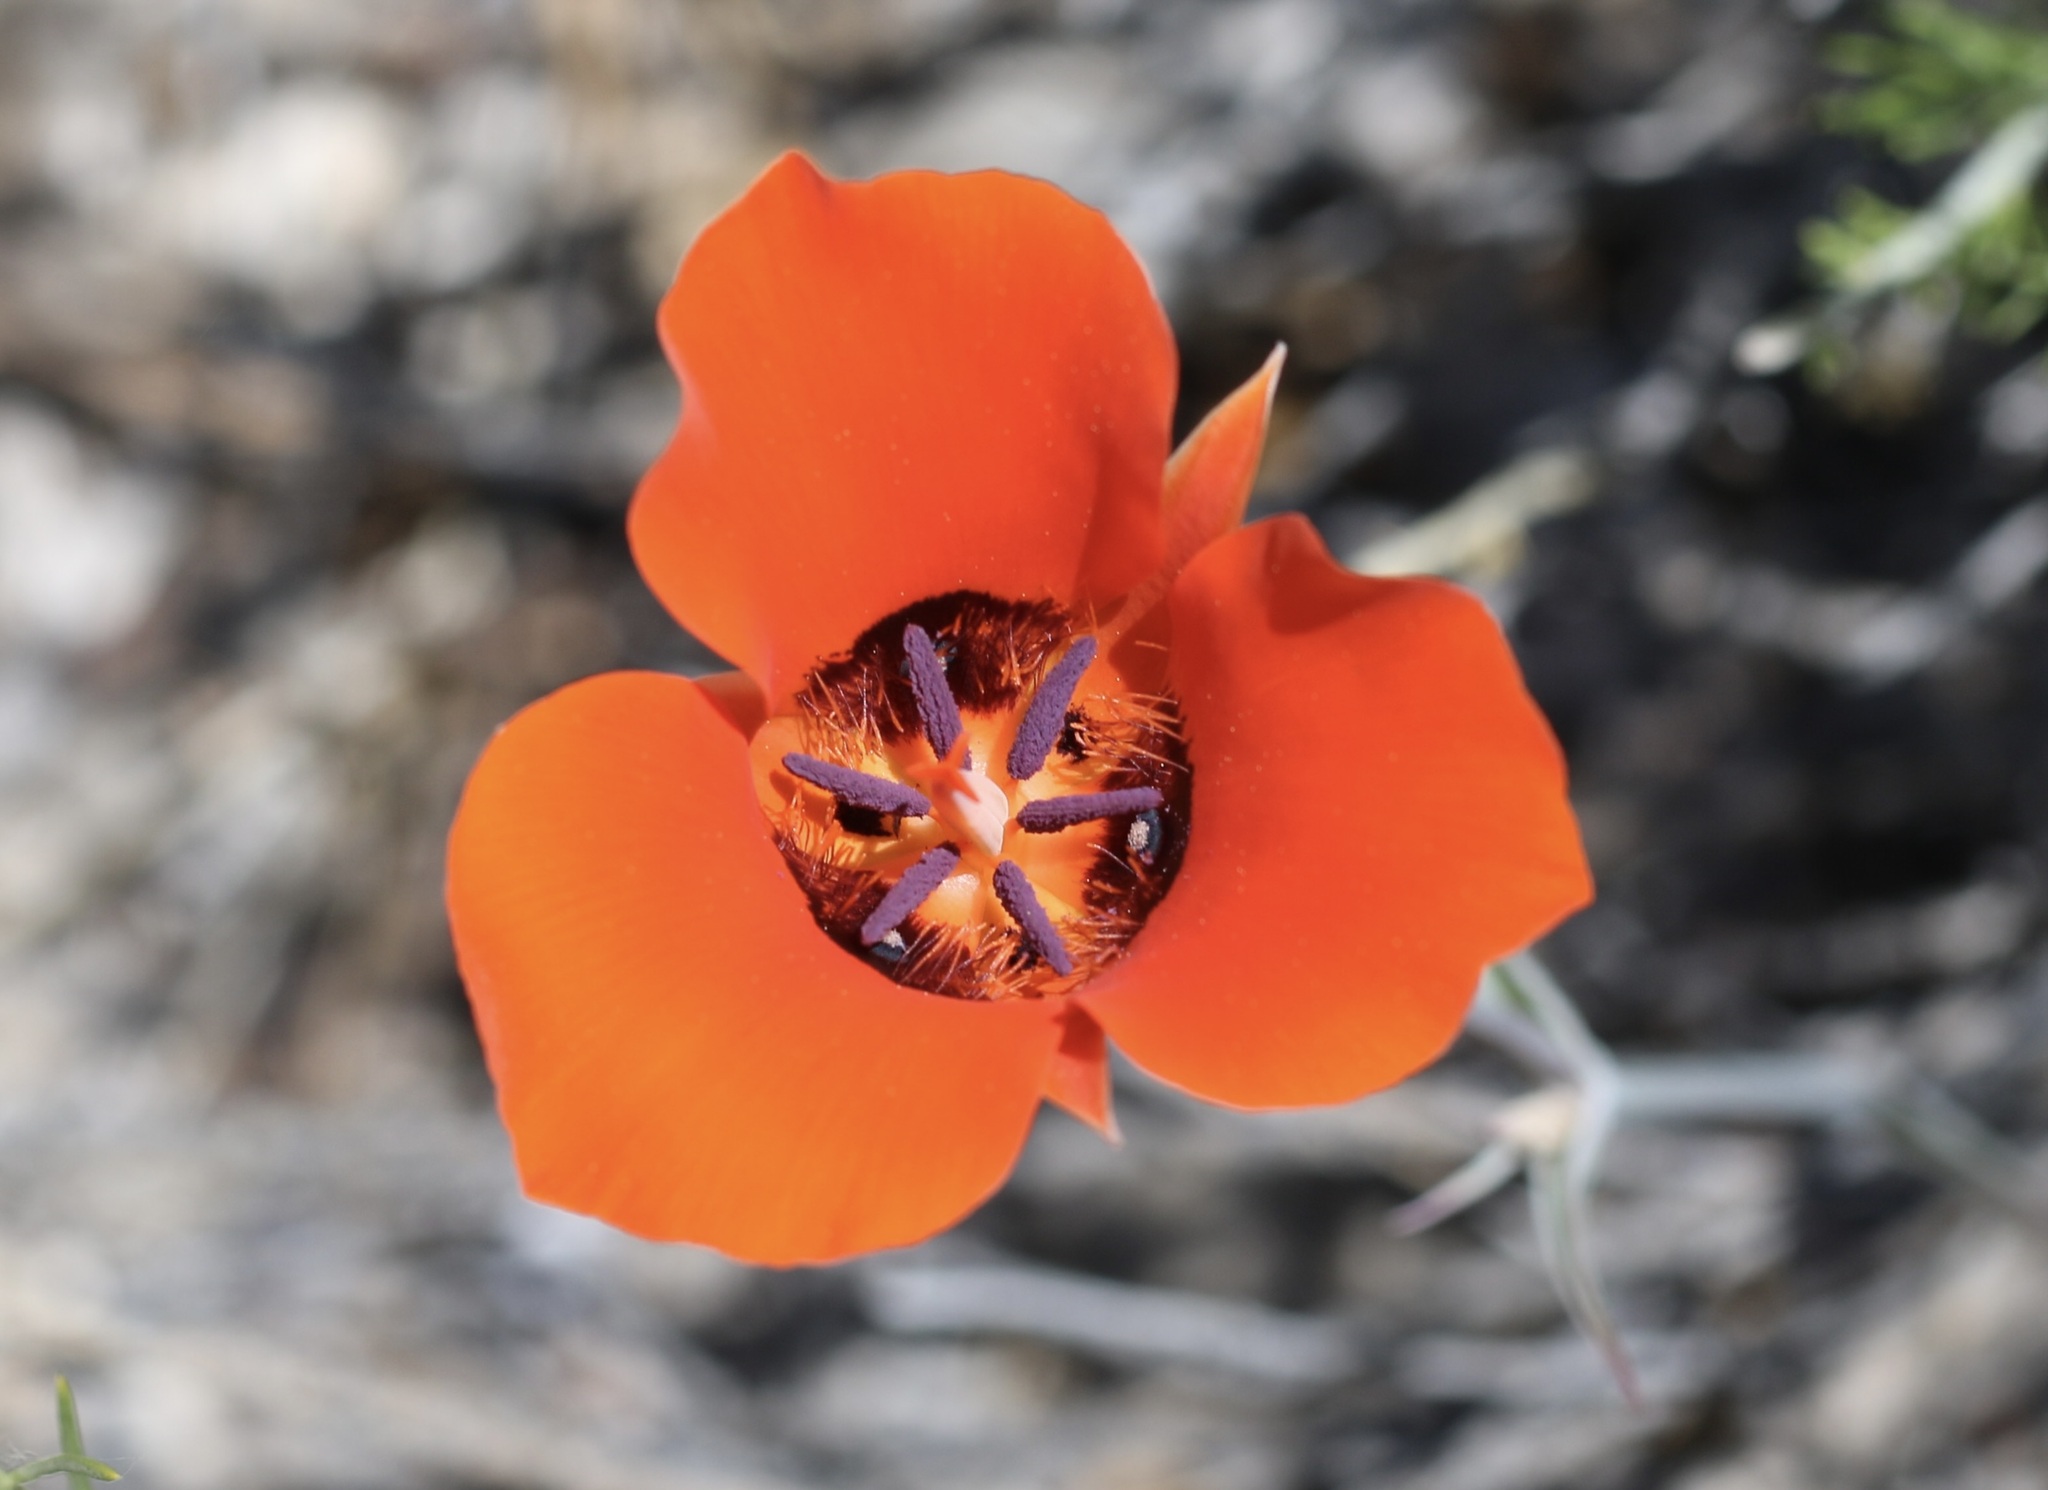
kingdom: Plantae
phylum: Tracheophyta
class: Liliopsida
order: Liliales
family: Liliaceae
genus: Calochortus
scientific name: Calochortus kennedyi
